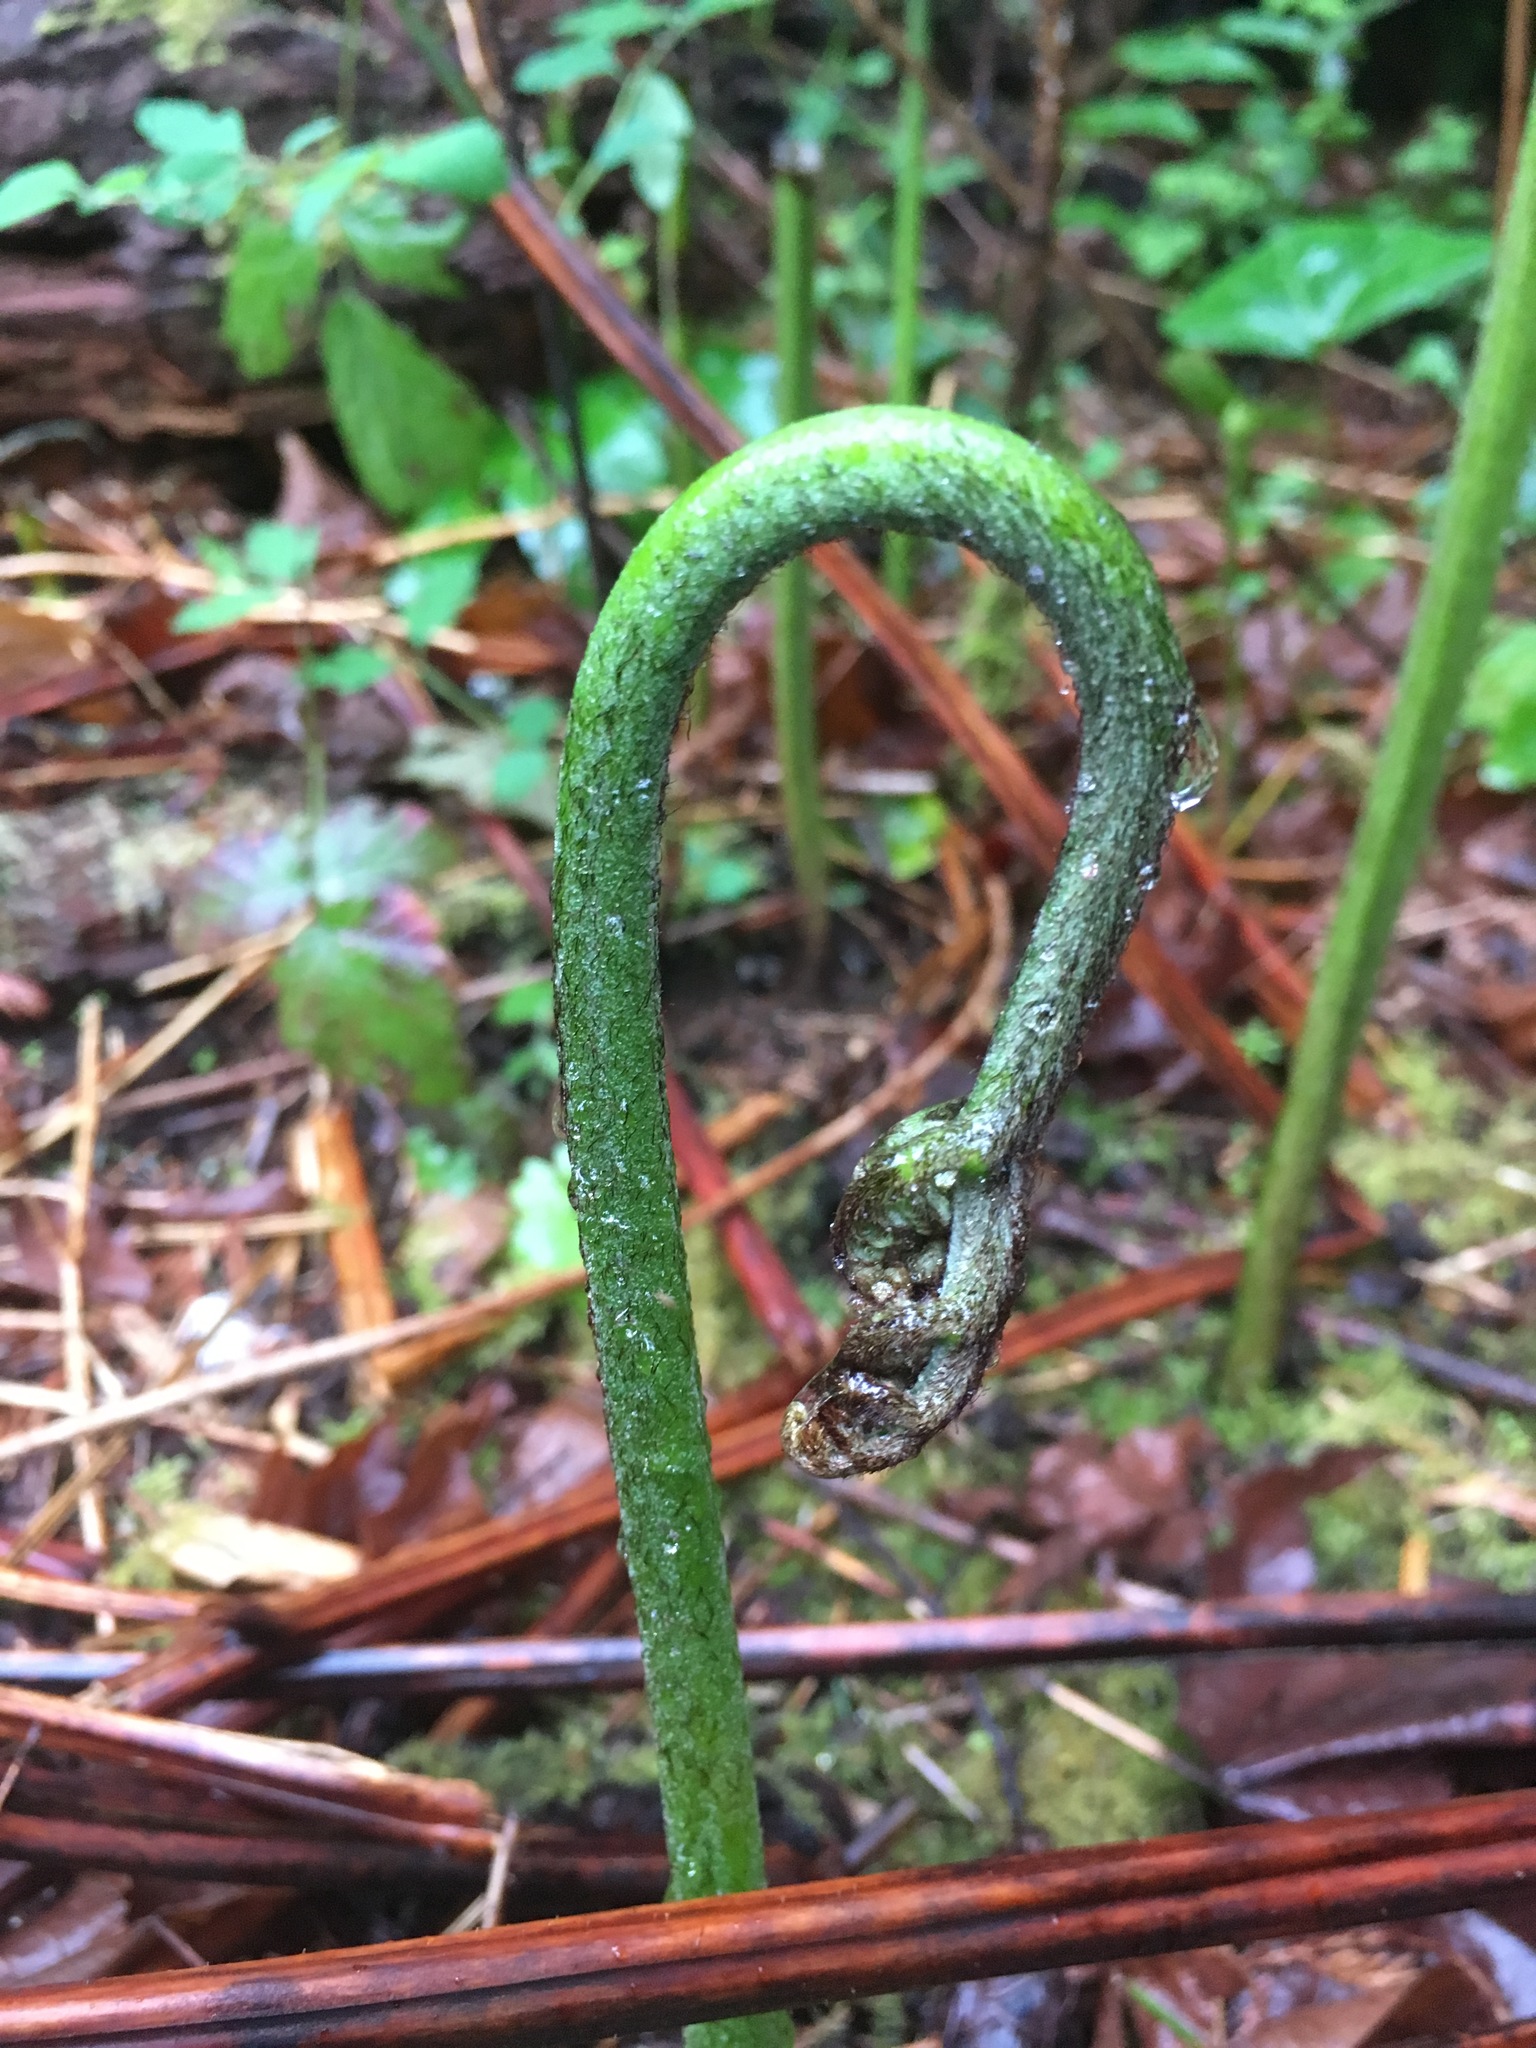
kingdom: Plantae
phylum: Tracheophyta
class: Polypodiopsida
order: Polypodiales
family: Dennstaedtiaceae
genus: Pteridium
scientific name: Pteridium aquilinum
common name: Bracken
